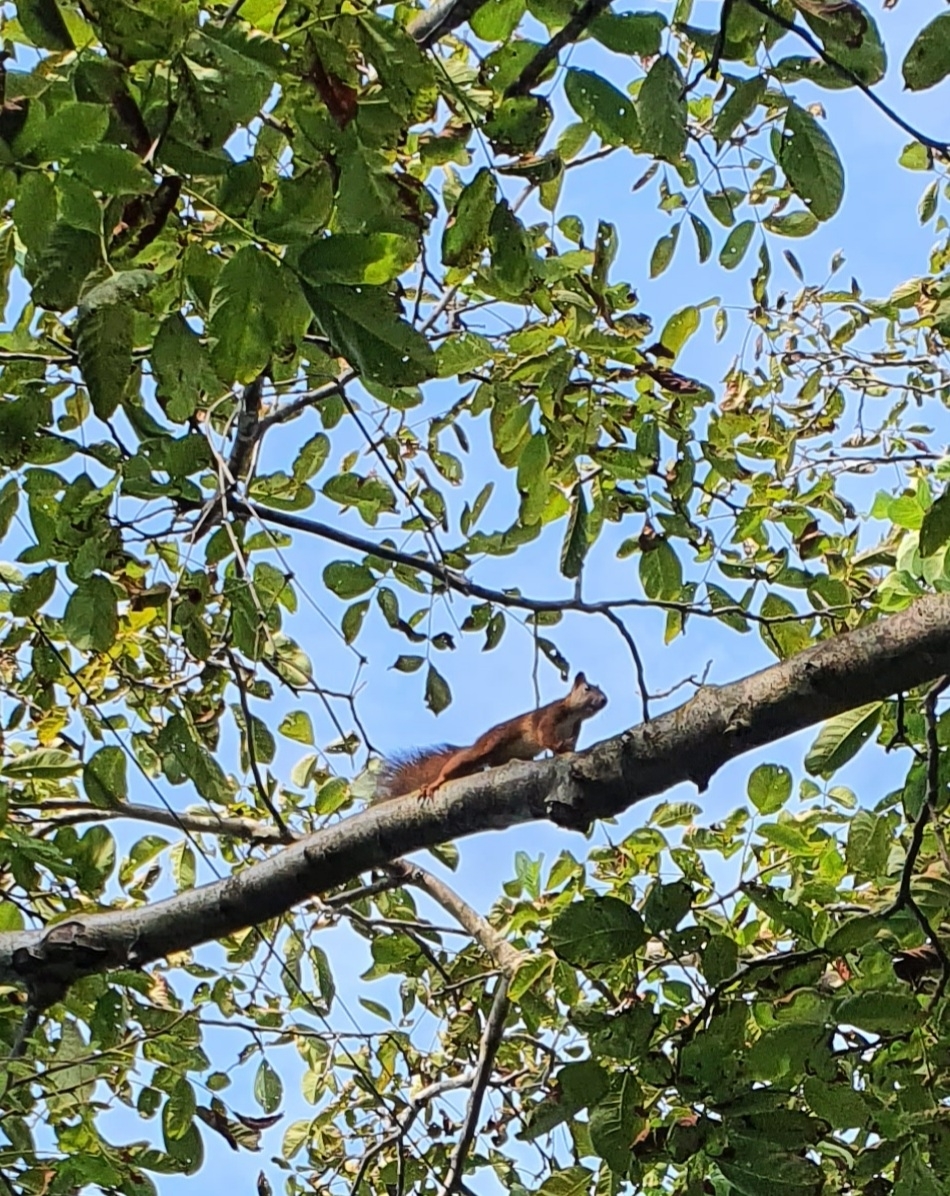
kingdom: Animalia
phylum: Chordata
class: Mammalia
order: Rodentia
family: Sciuridae
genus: Sciurus
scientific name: Sciurus vulgaris
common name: Eurasian red squirrel
